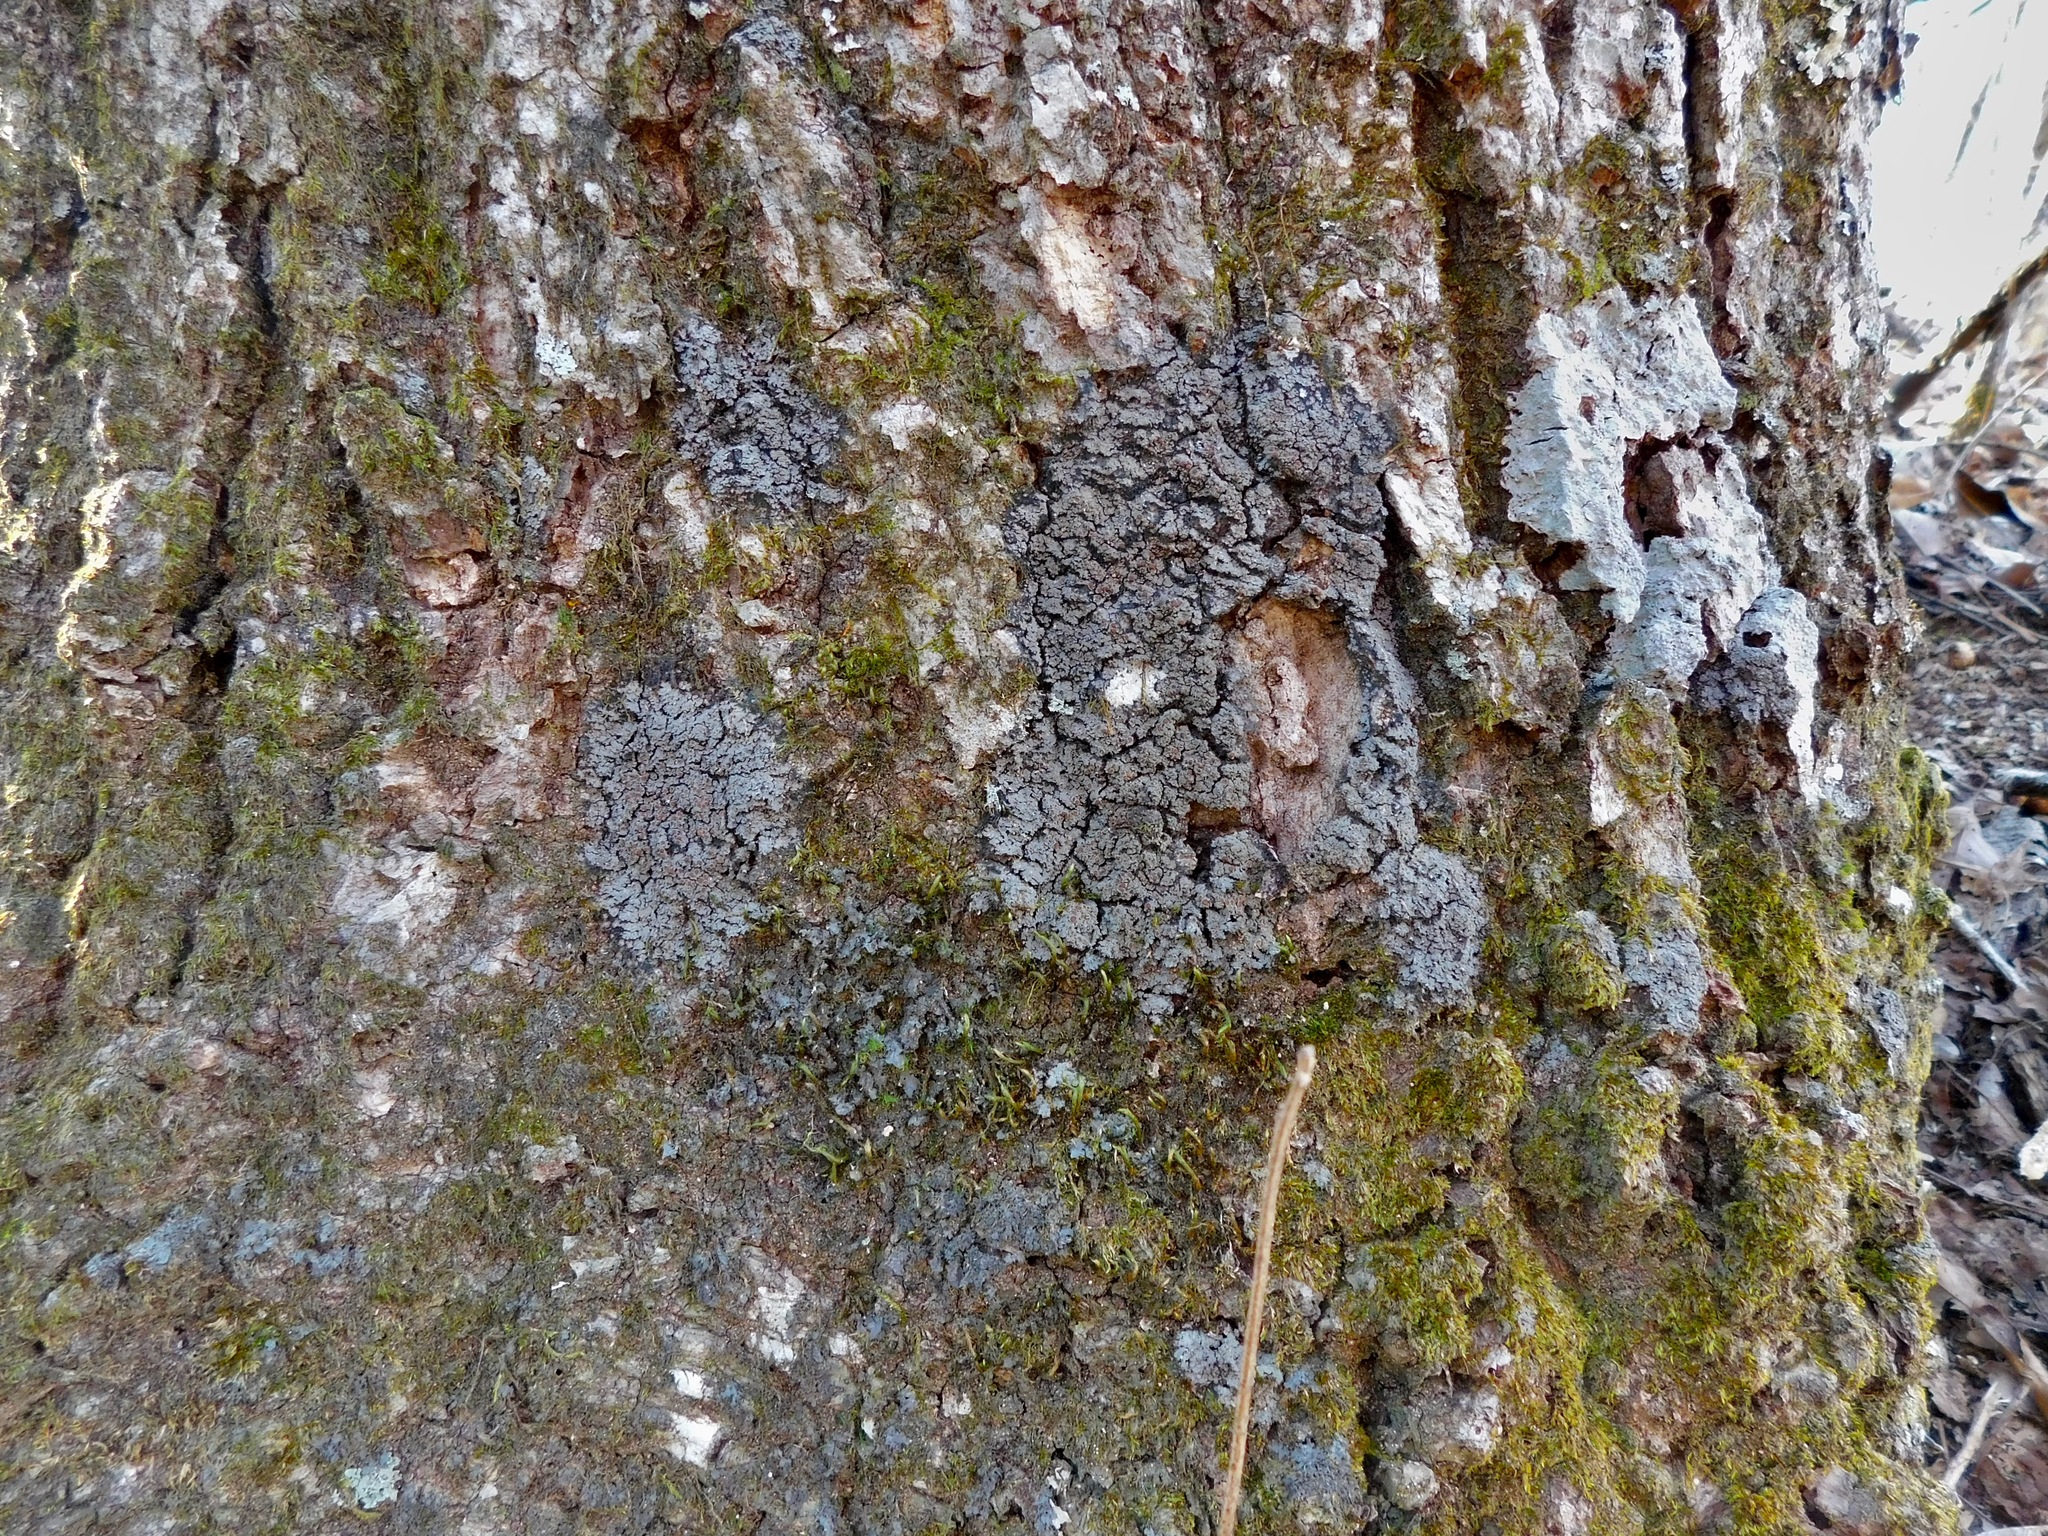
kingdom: Fungi
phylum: Ascomycota
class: Lecanoromycetes
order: Peltigerales
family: Pannariaceae
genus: Fuscopannaria
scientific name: Fuscopannaria leucosticta
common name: Rimmed shingle lichen
